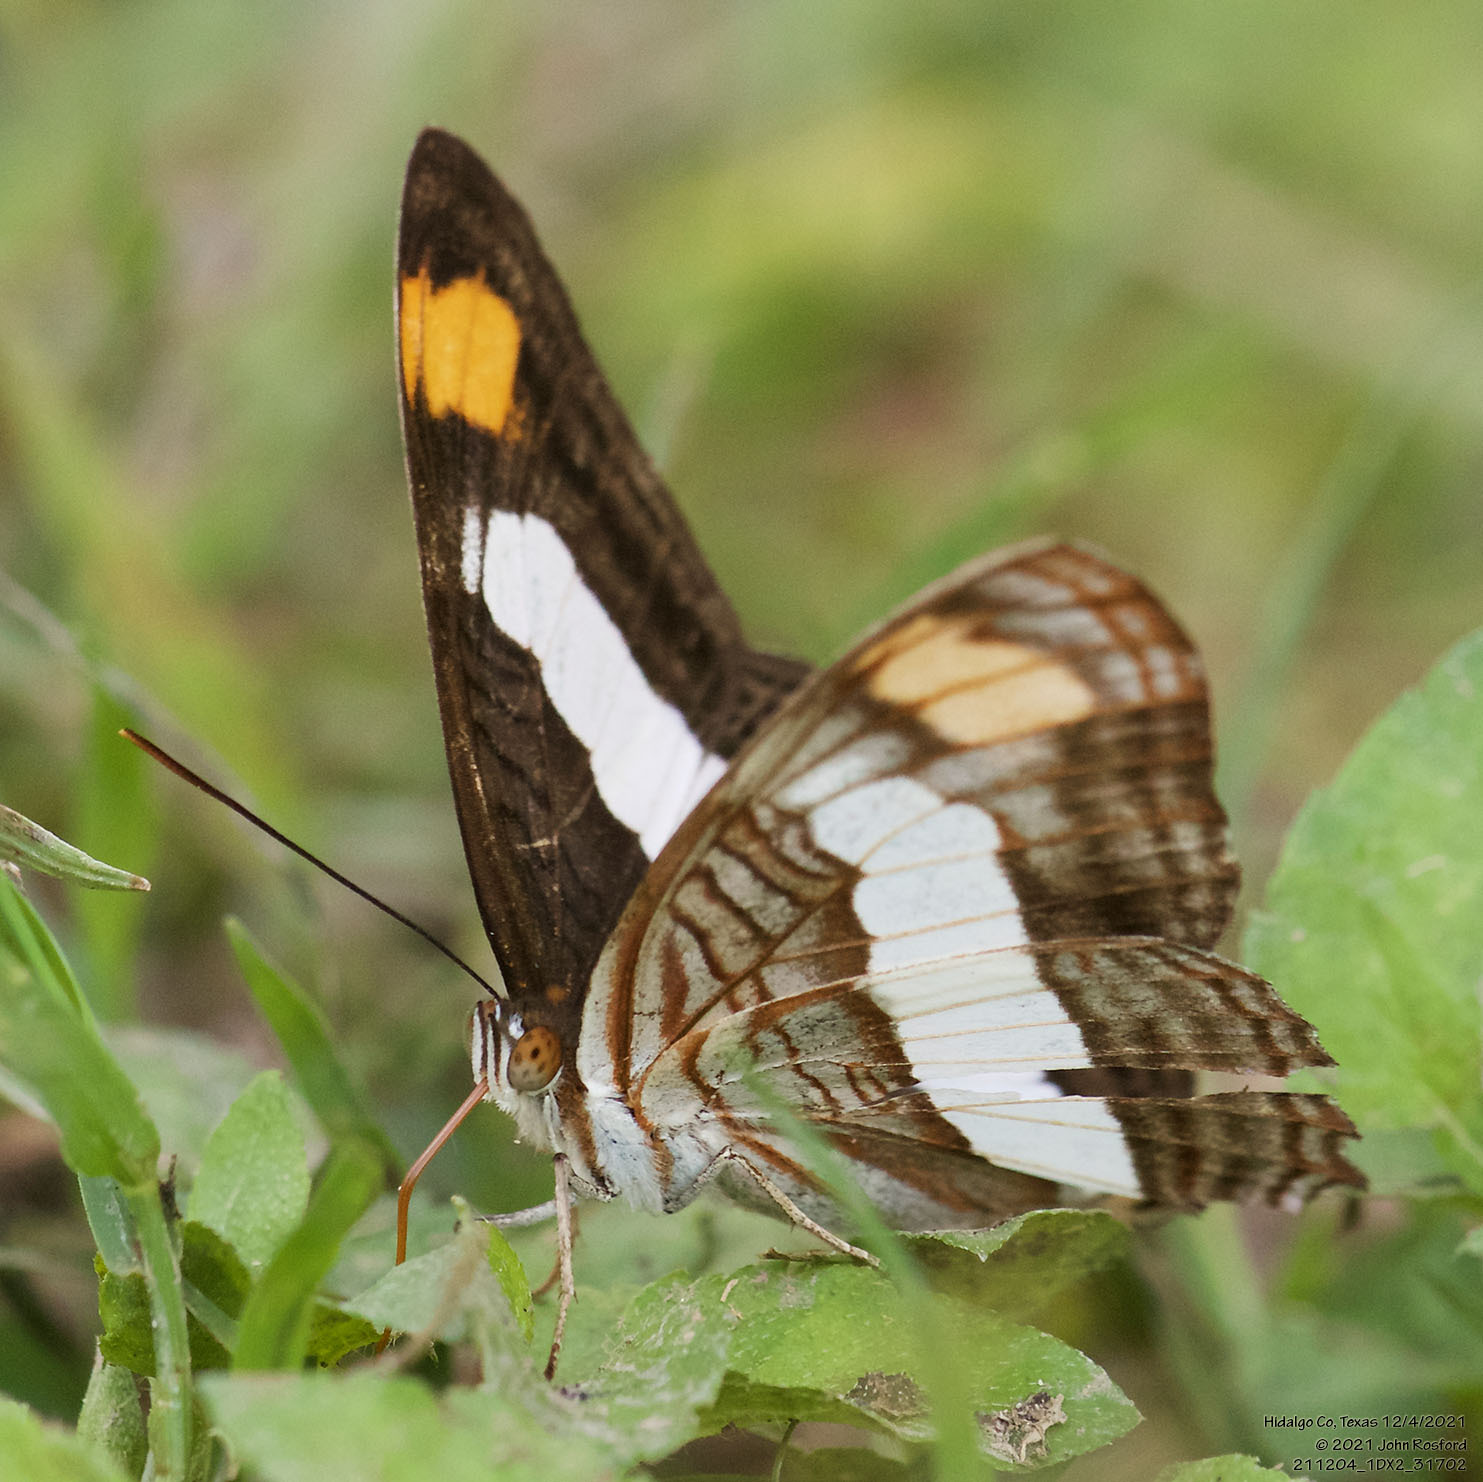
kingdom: Animalia
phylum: Arthropoda
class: Insecta
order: Lepidoptera
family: Nymphalidae
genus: Limenitis
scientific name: Limenitis Adelpha basiloides
